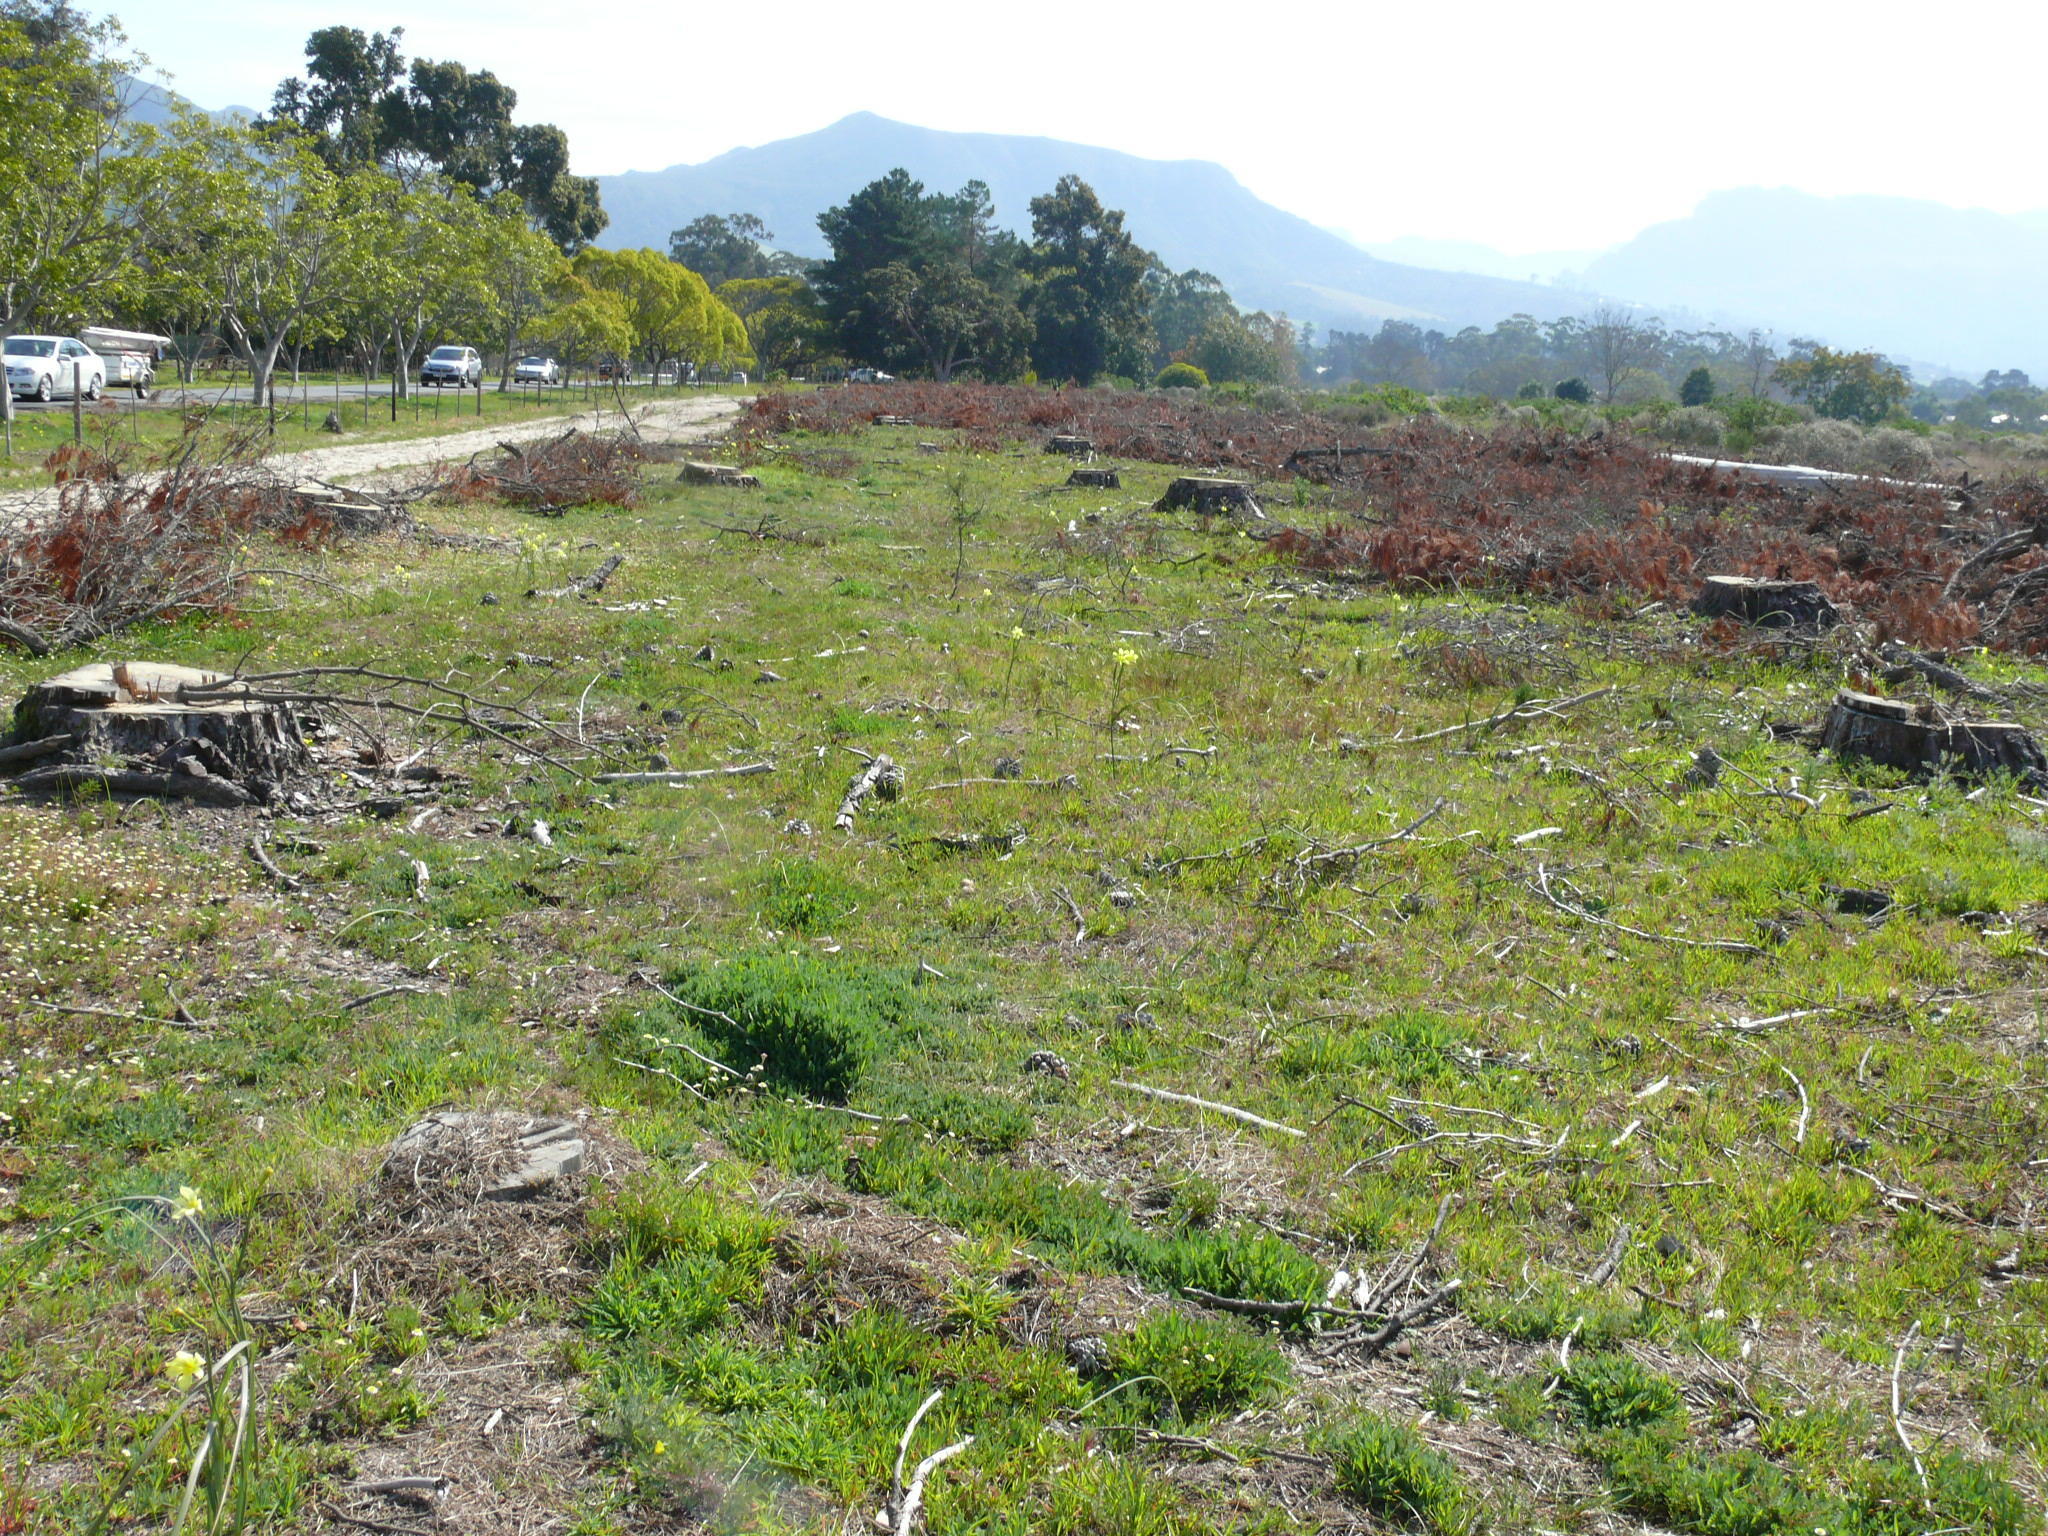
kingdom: Plantae
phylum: Tracheophyta
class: Liliopsida
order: Asparagales
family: Iridaceae
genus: Moraea
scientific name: Moraea collina
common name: Cape-tulip
